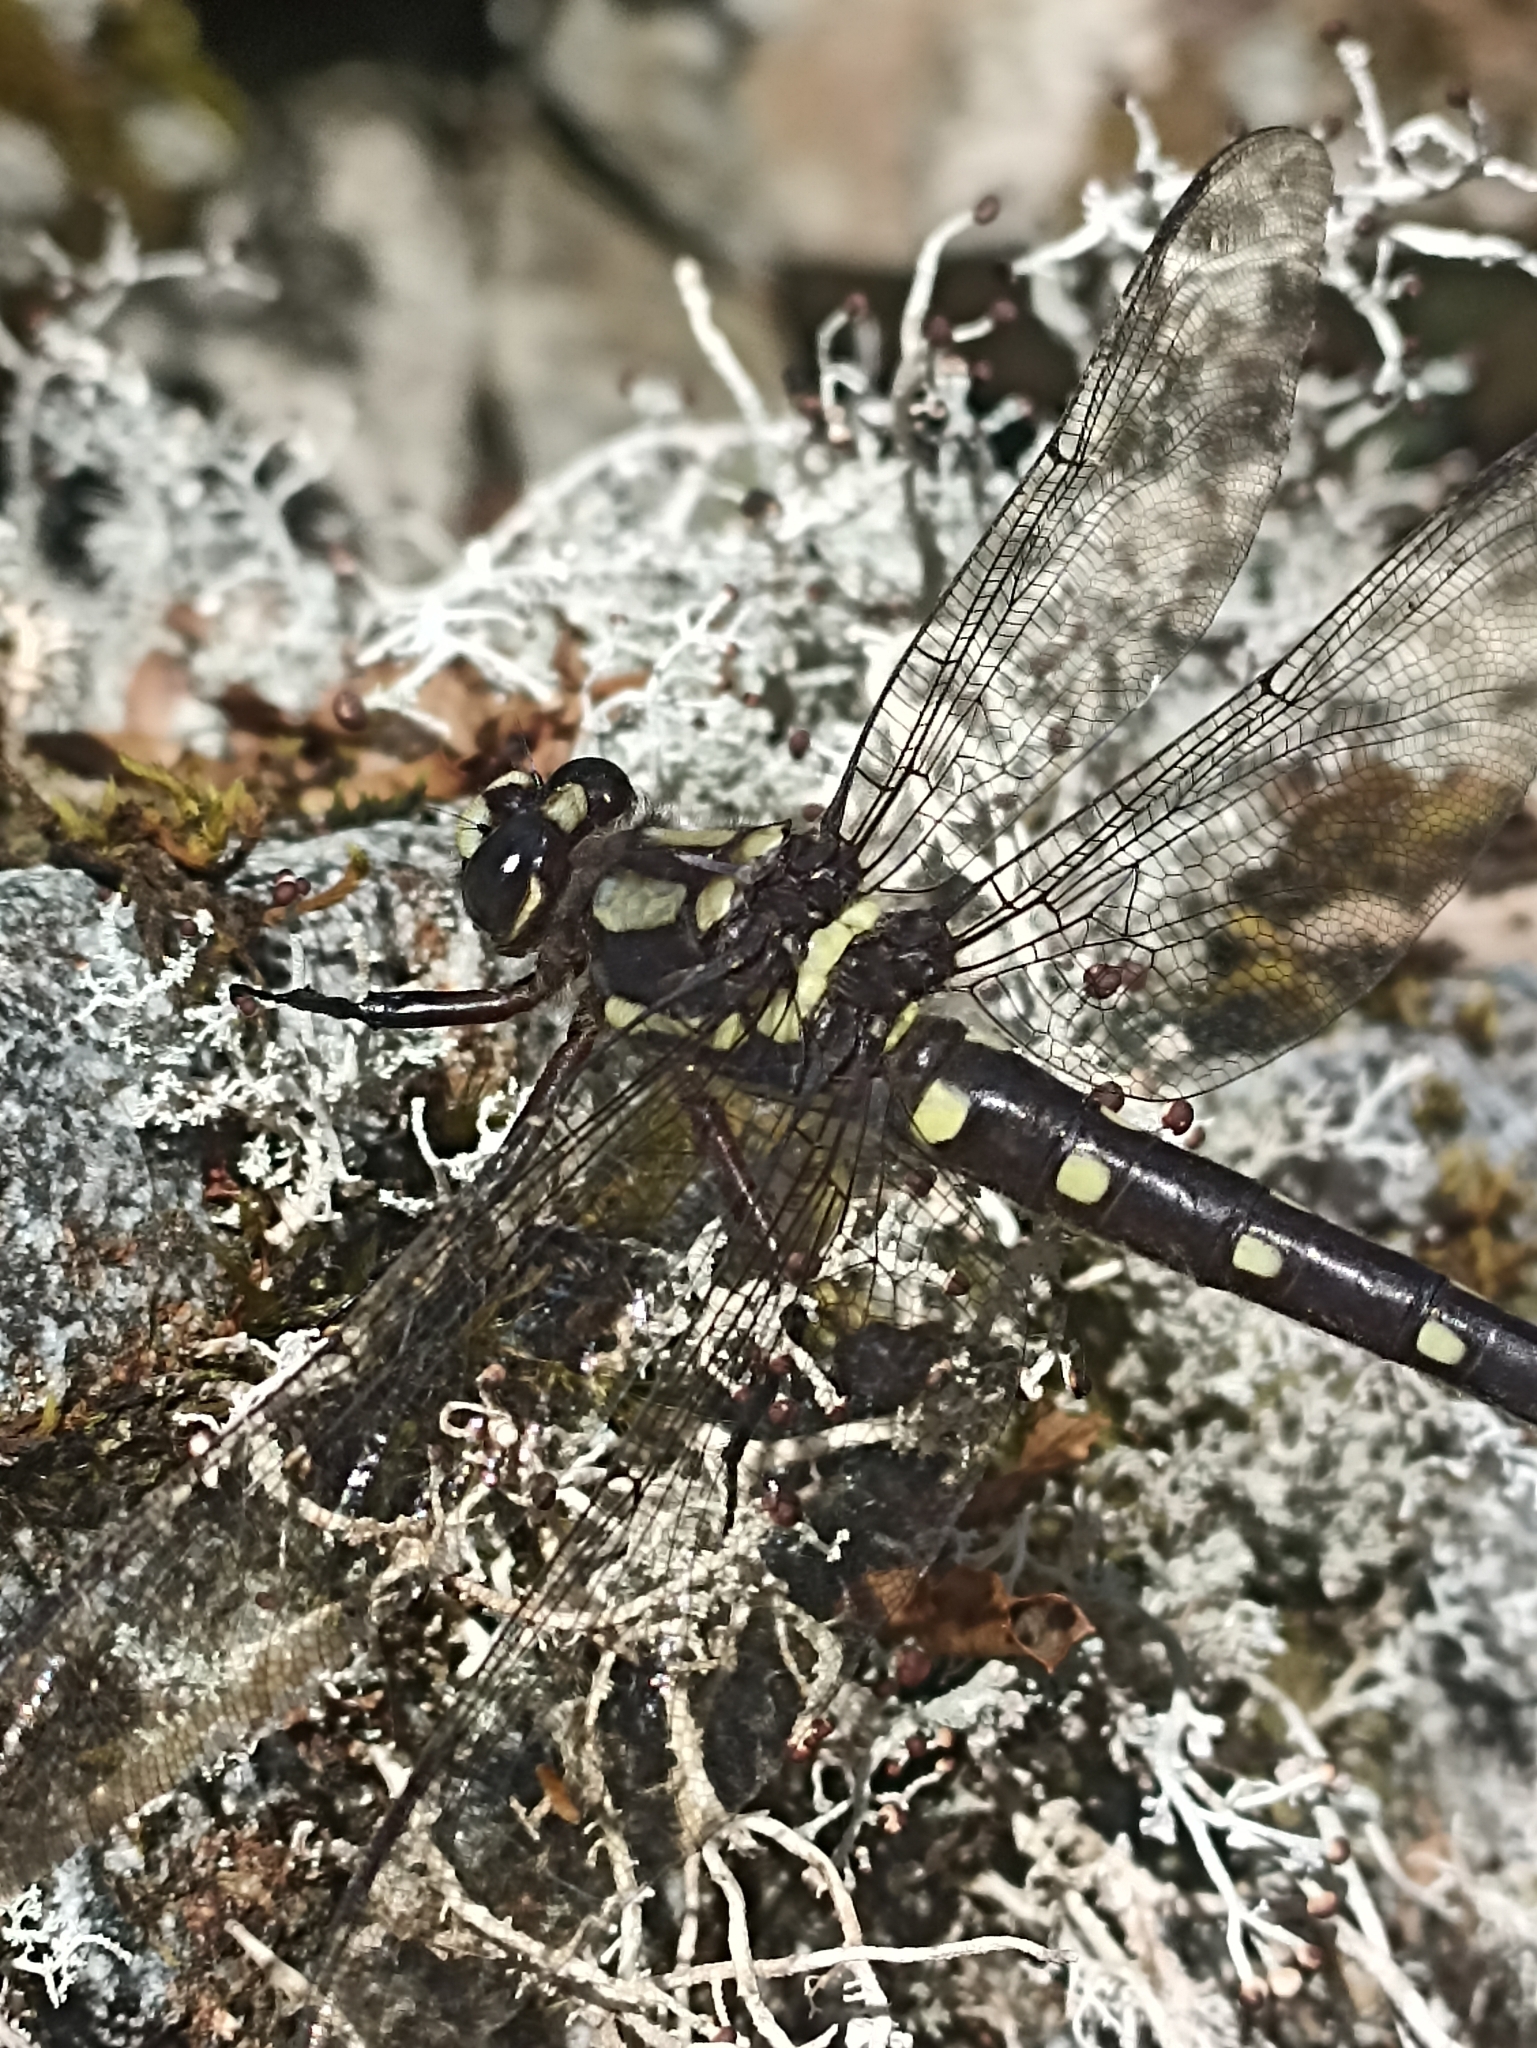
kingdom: Animalia
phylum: Arthropoda
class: Insecta
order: Odonata
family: Petaluridae
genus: Uropetala
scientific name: Uropetala carovei
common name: Bush giant dragonfly
